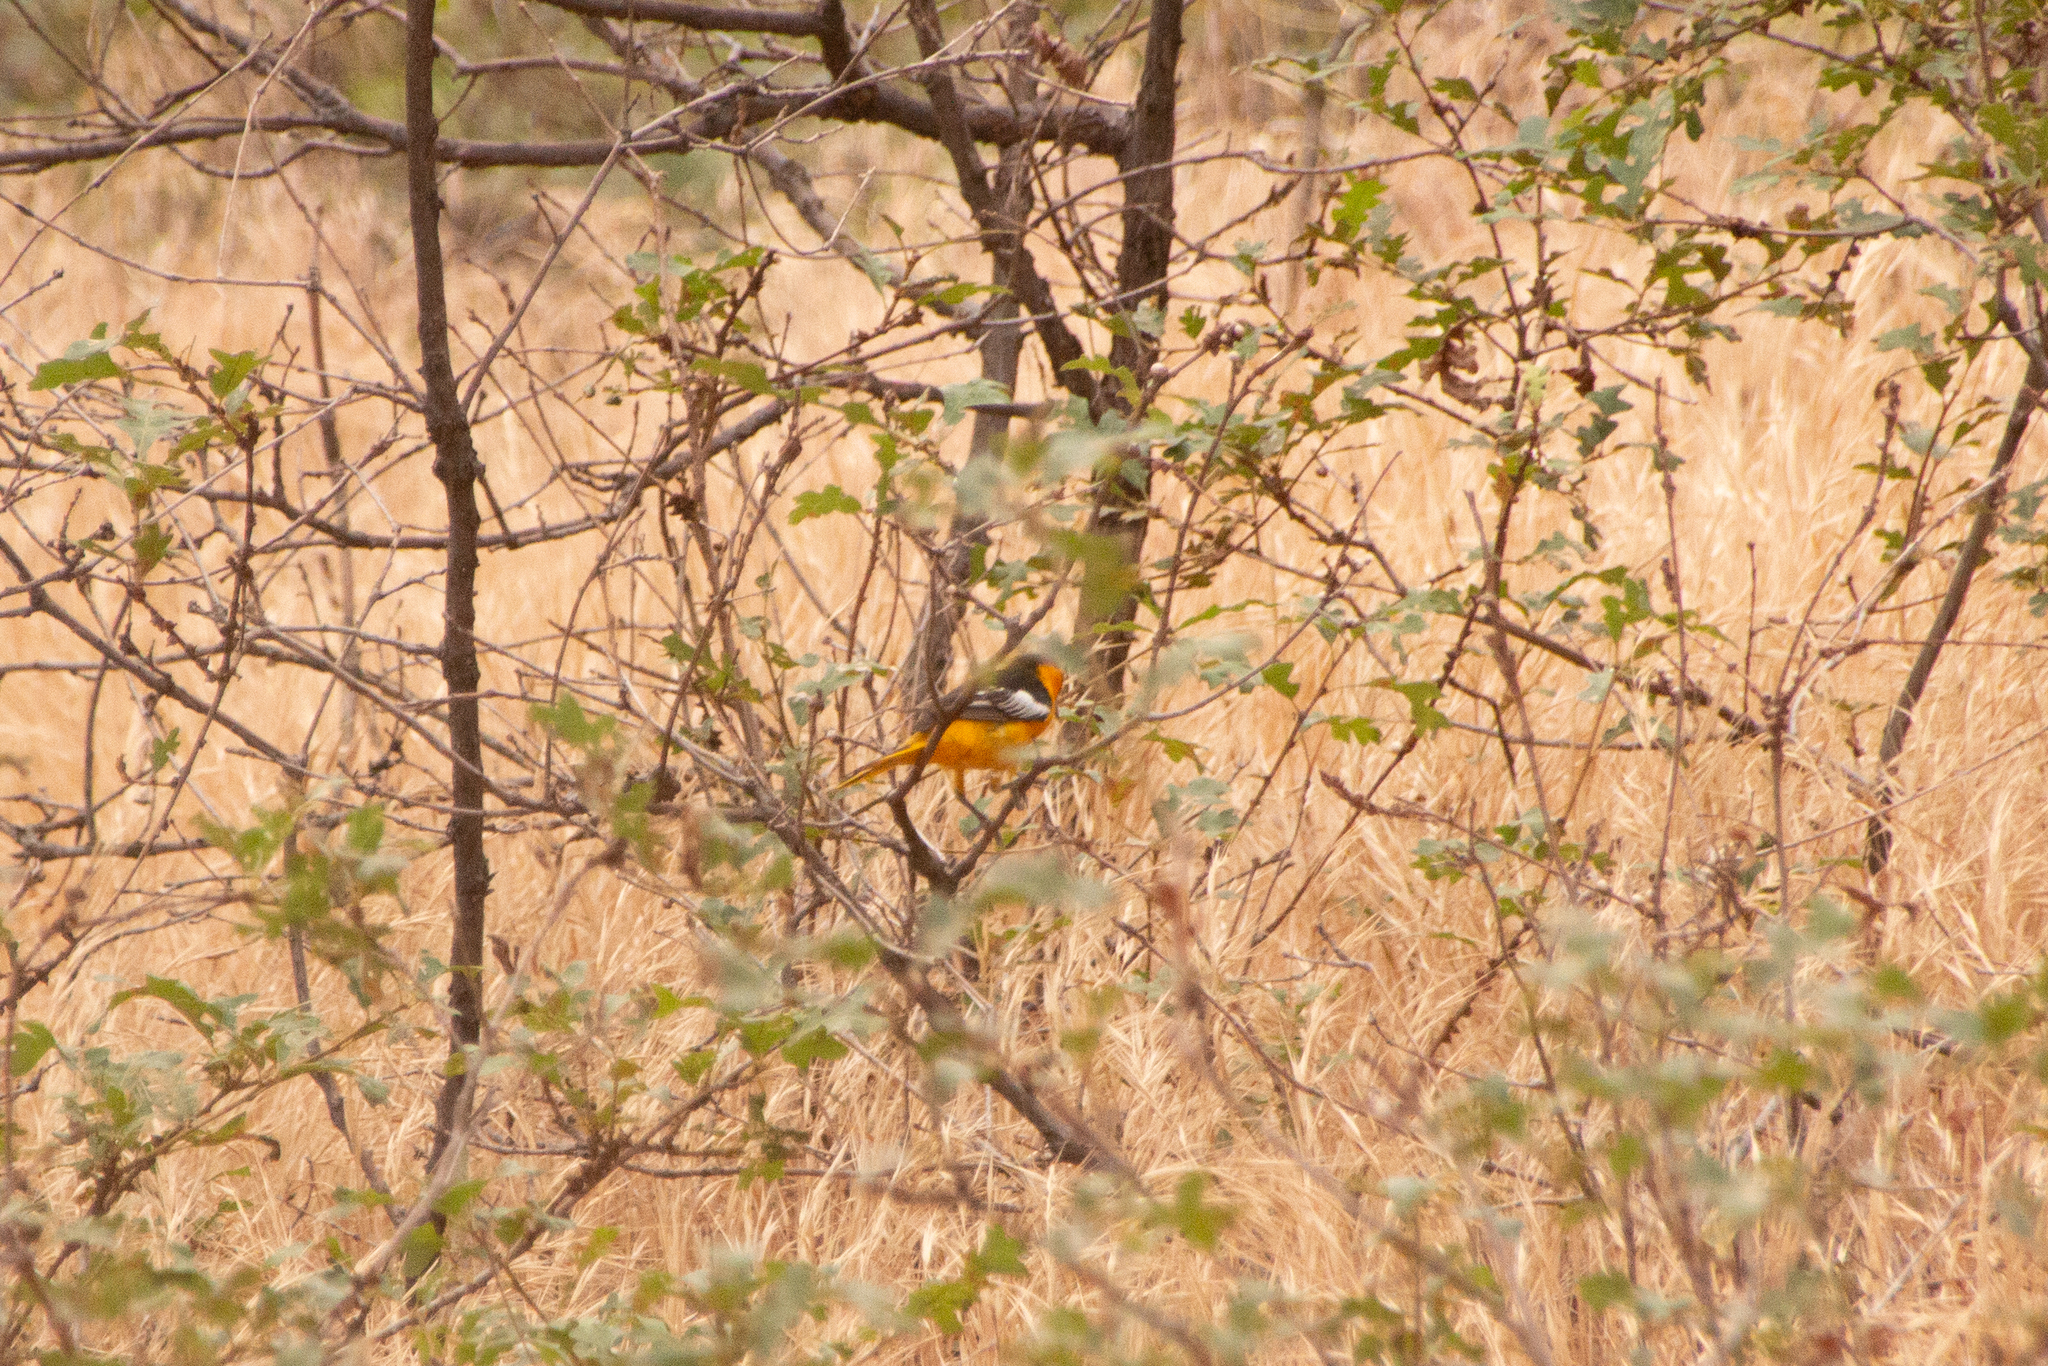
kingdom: Animalia
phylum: Chordata
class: Aves
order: Passeriformes
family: Icteridae
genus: Icterus
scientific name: Icterus bullockii
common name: Bullock's oriole
